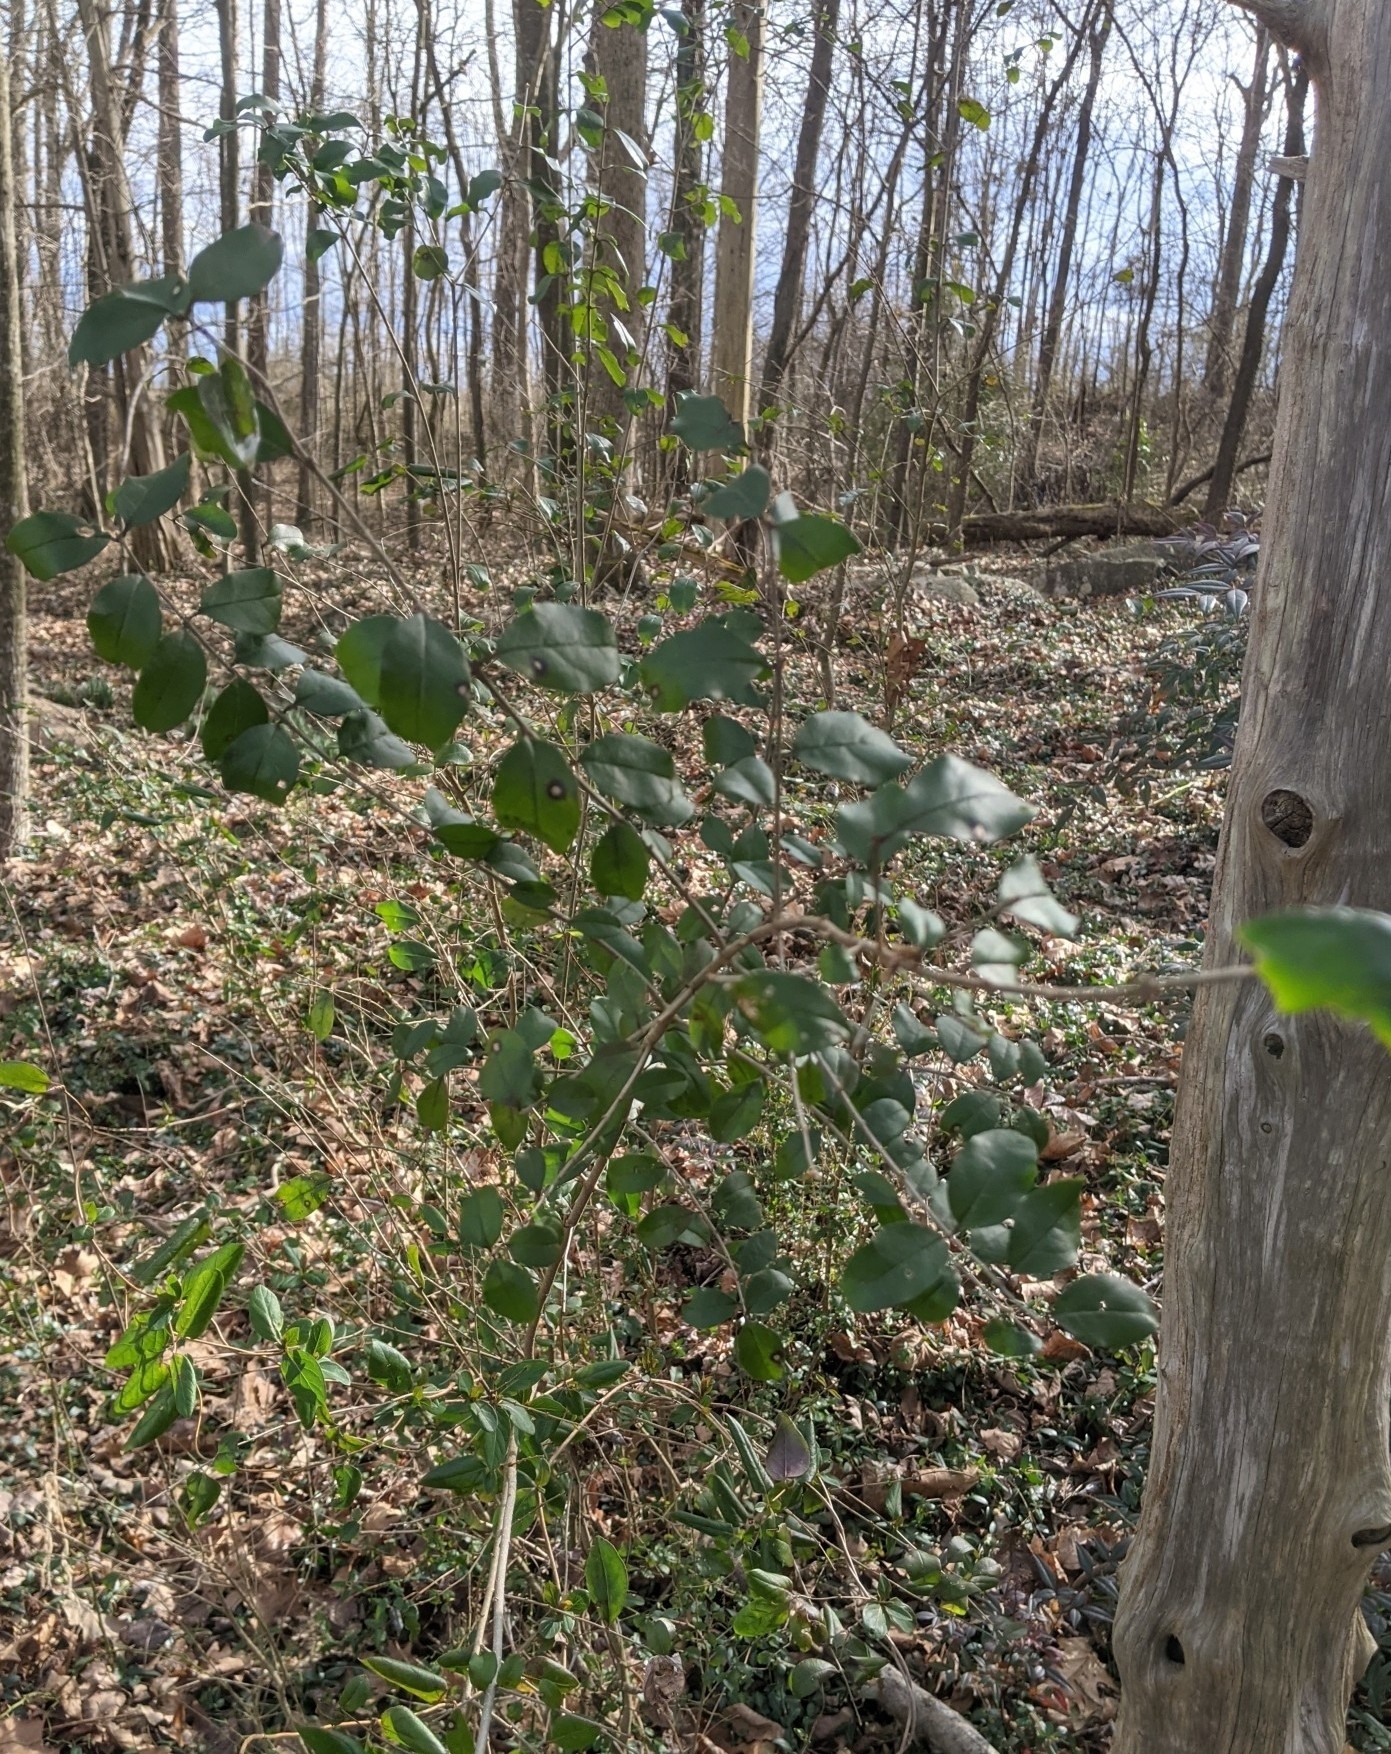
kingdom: Plantae
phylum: Tracheophyta
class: Magnoliopsida
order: Lamiales
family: Oleaceae
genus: Ligustrum
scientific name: Ligustrum sinense
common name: Chinese privet
